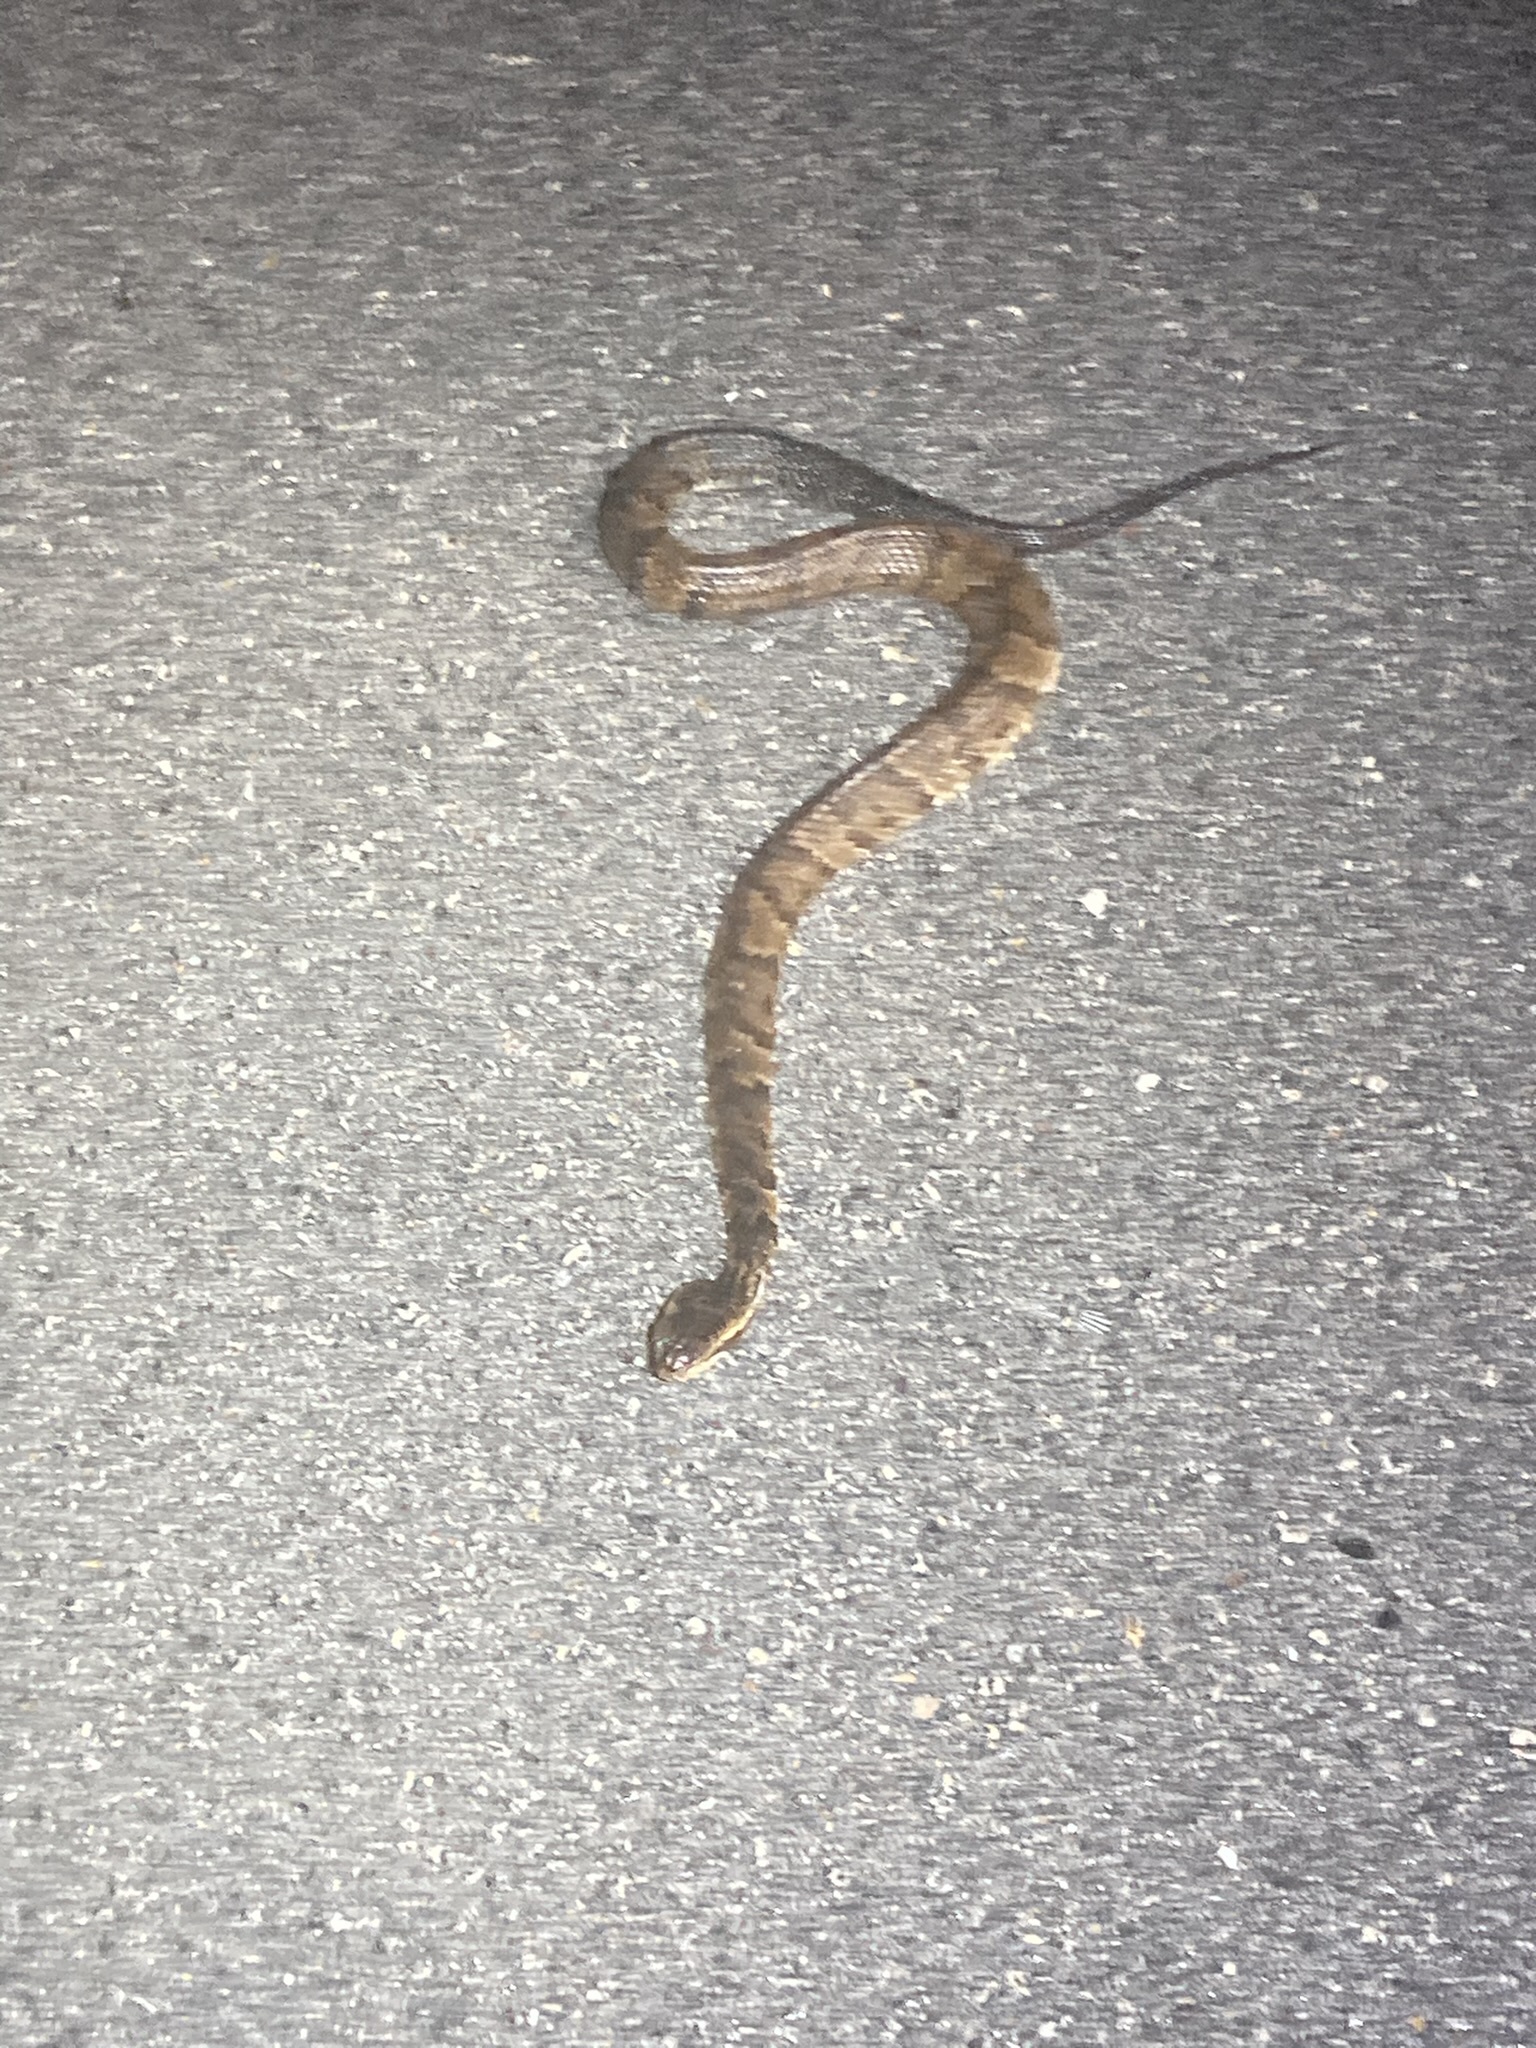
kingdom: Animalia
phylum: Chordata
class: Squamata
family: Viperidae
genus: Agkistrodon
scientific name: Agkistrodon conanti
